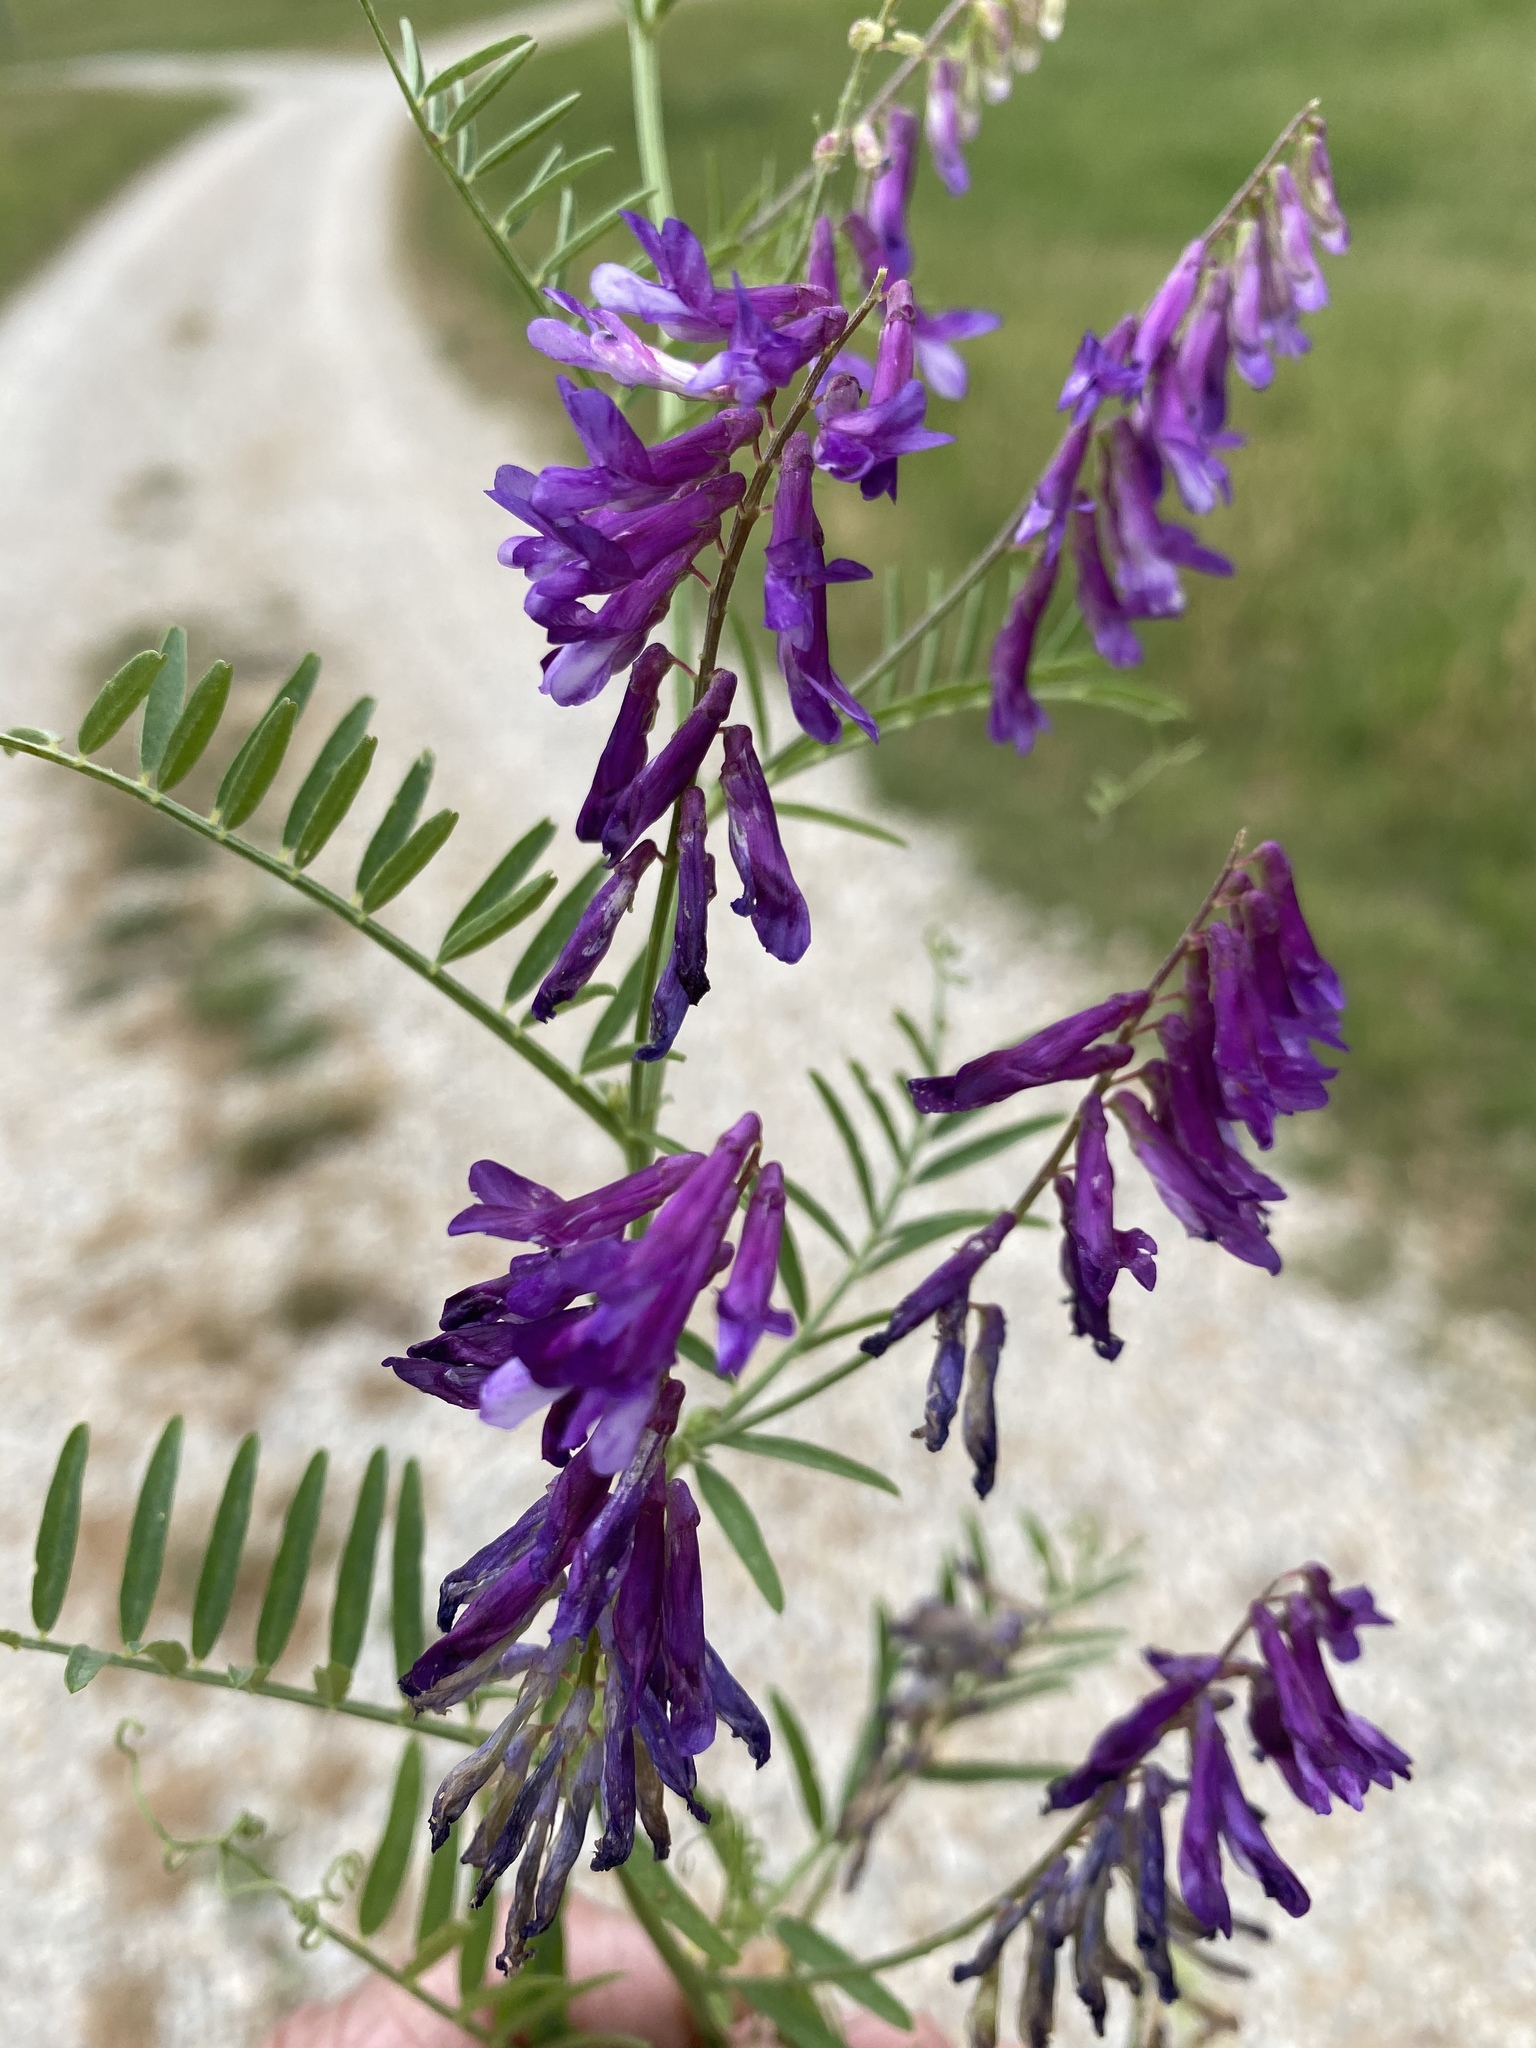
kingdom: Plantae
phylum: Tracheophyta
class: Magnoliopsida
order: Fabales
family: Fabaceae
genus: Vicia
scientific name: Vicia villosa
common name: Fodder vetch
